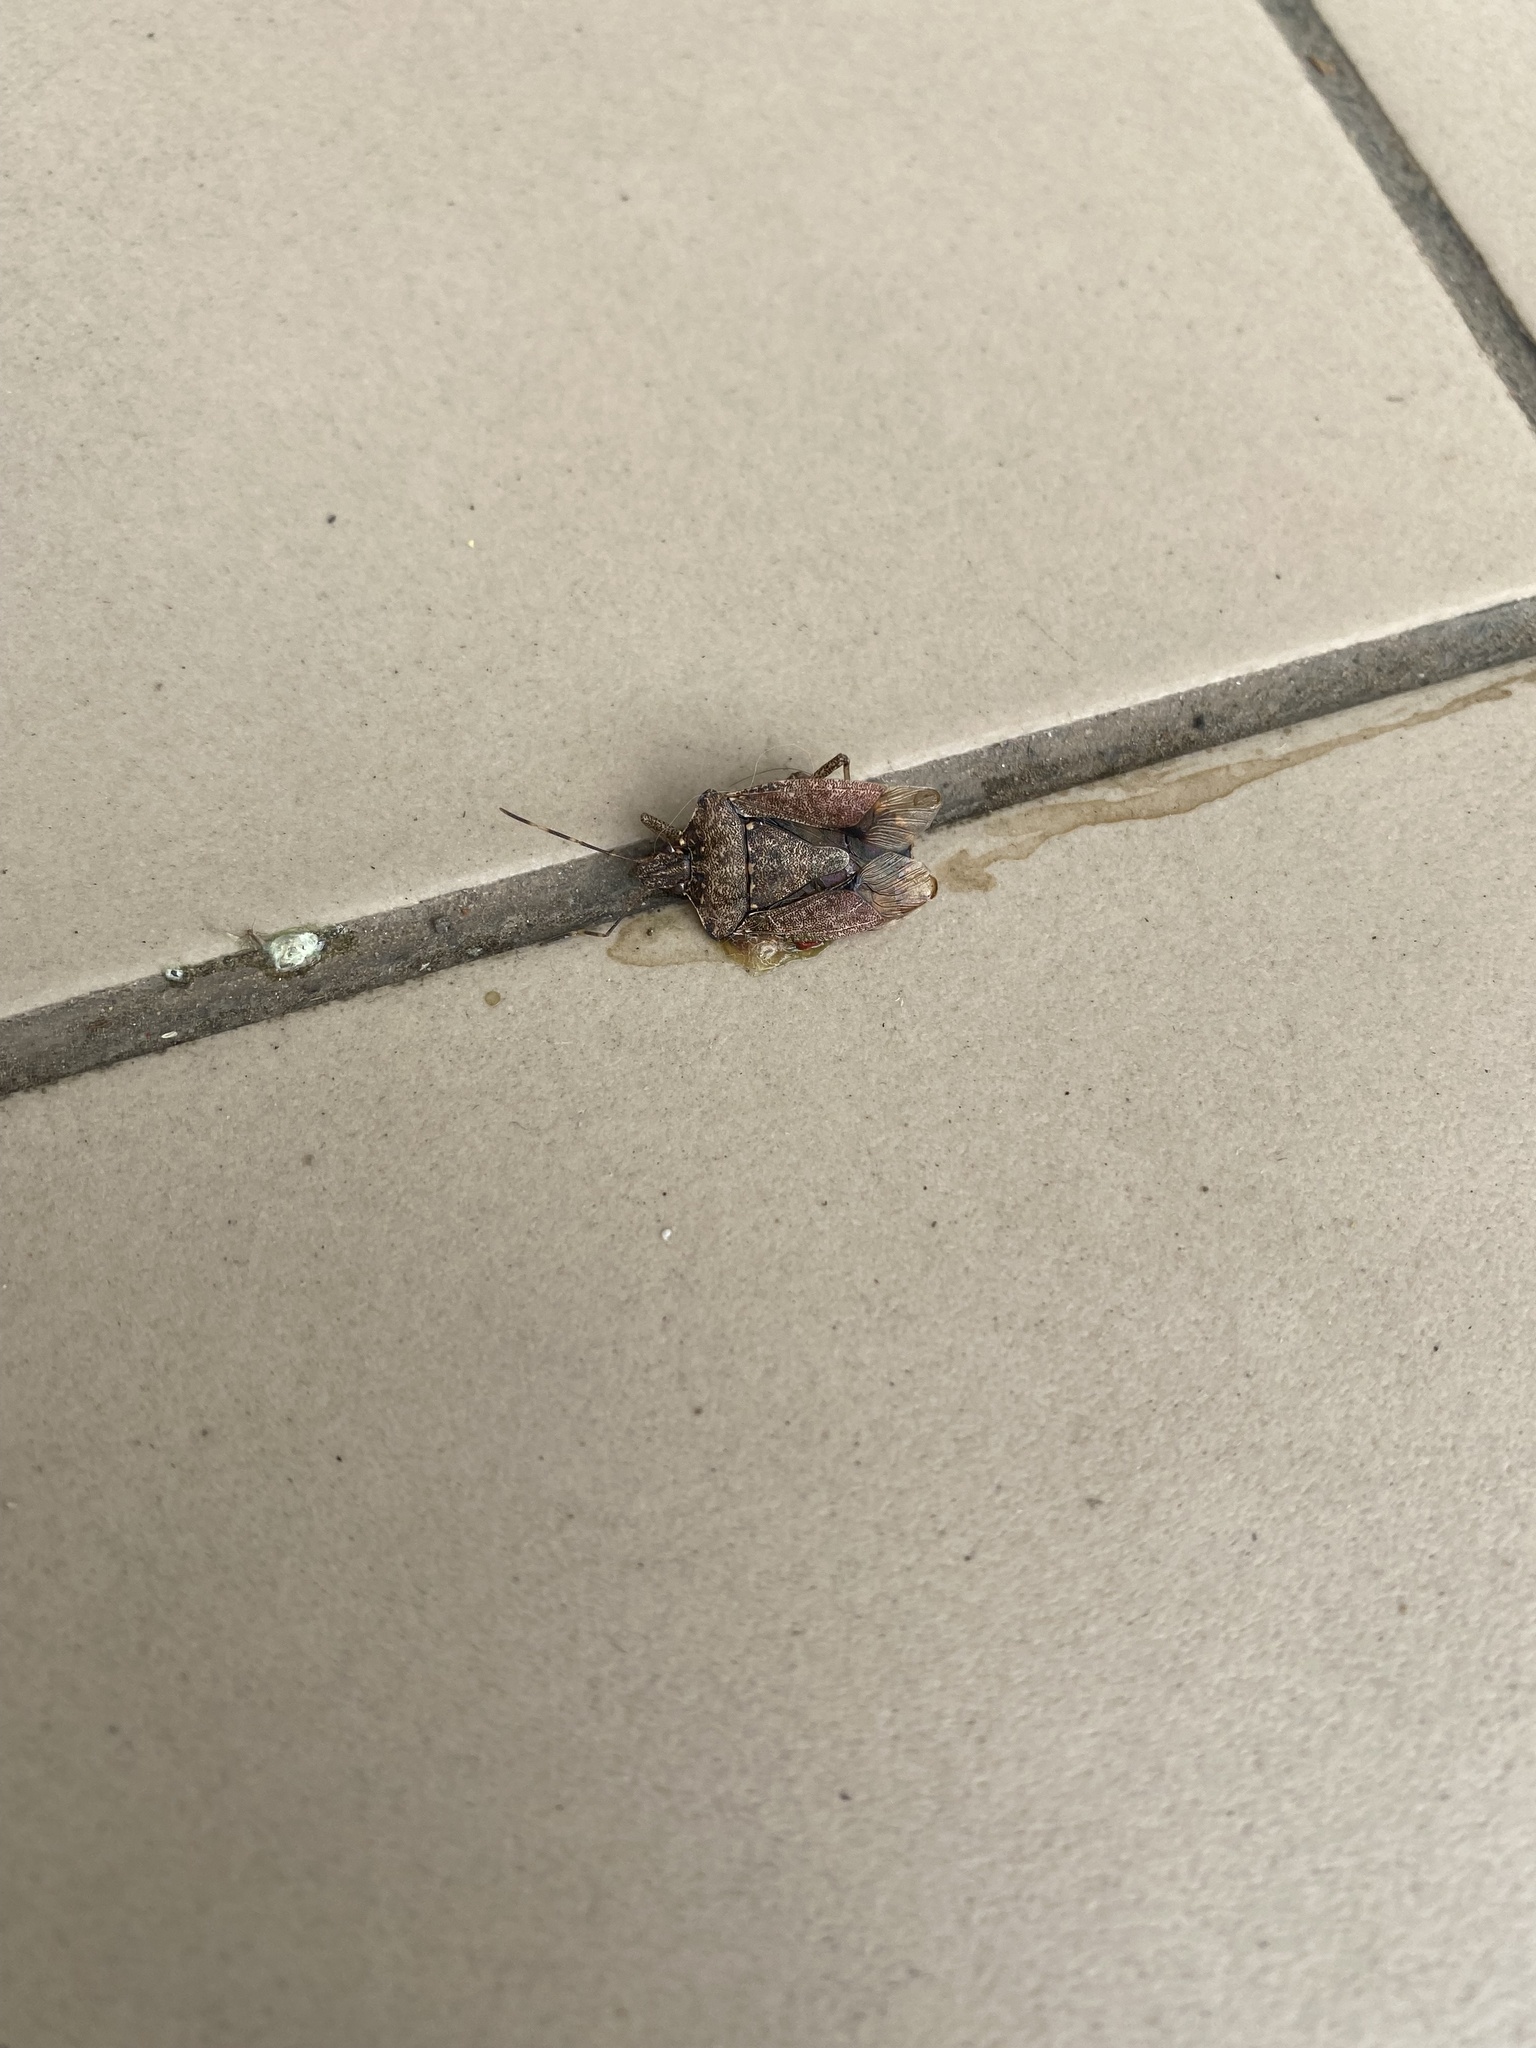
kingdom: Animalia
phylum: Arthropoda
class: Insecta
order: Hemiptera
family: Pentatomidae
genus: Halyomorpha
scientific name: Halyomorpha halys
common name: Brown marmorated stink bug
